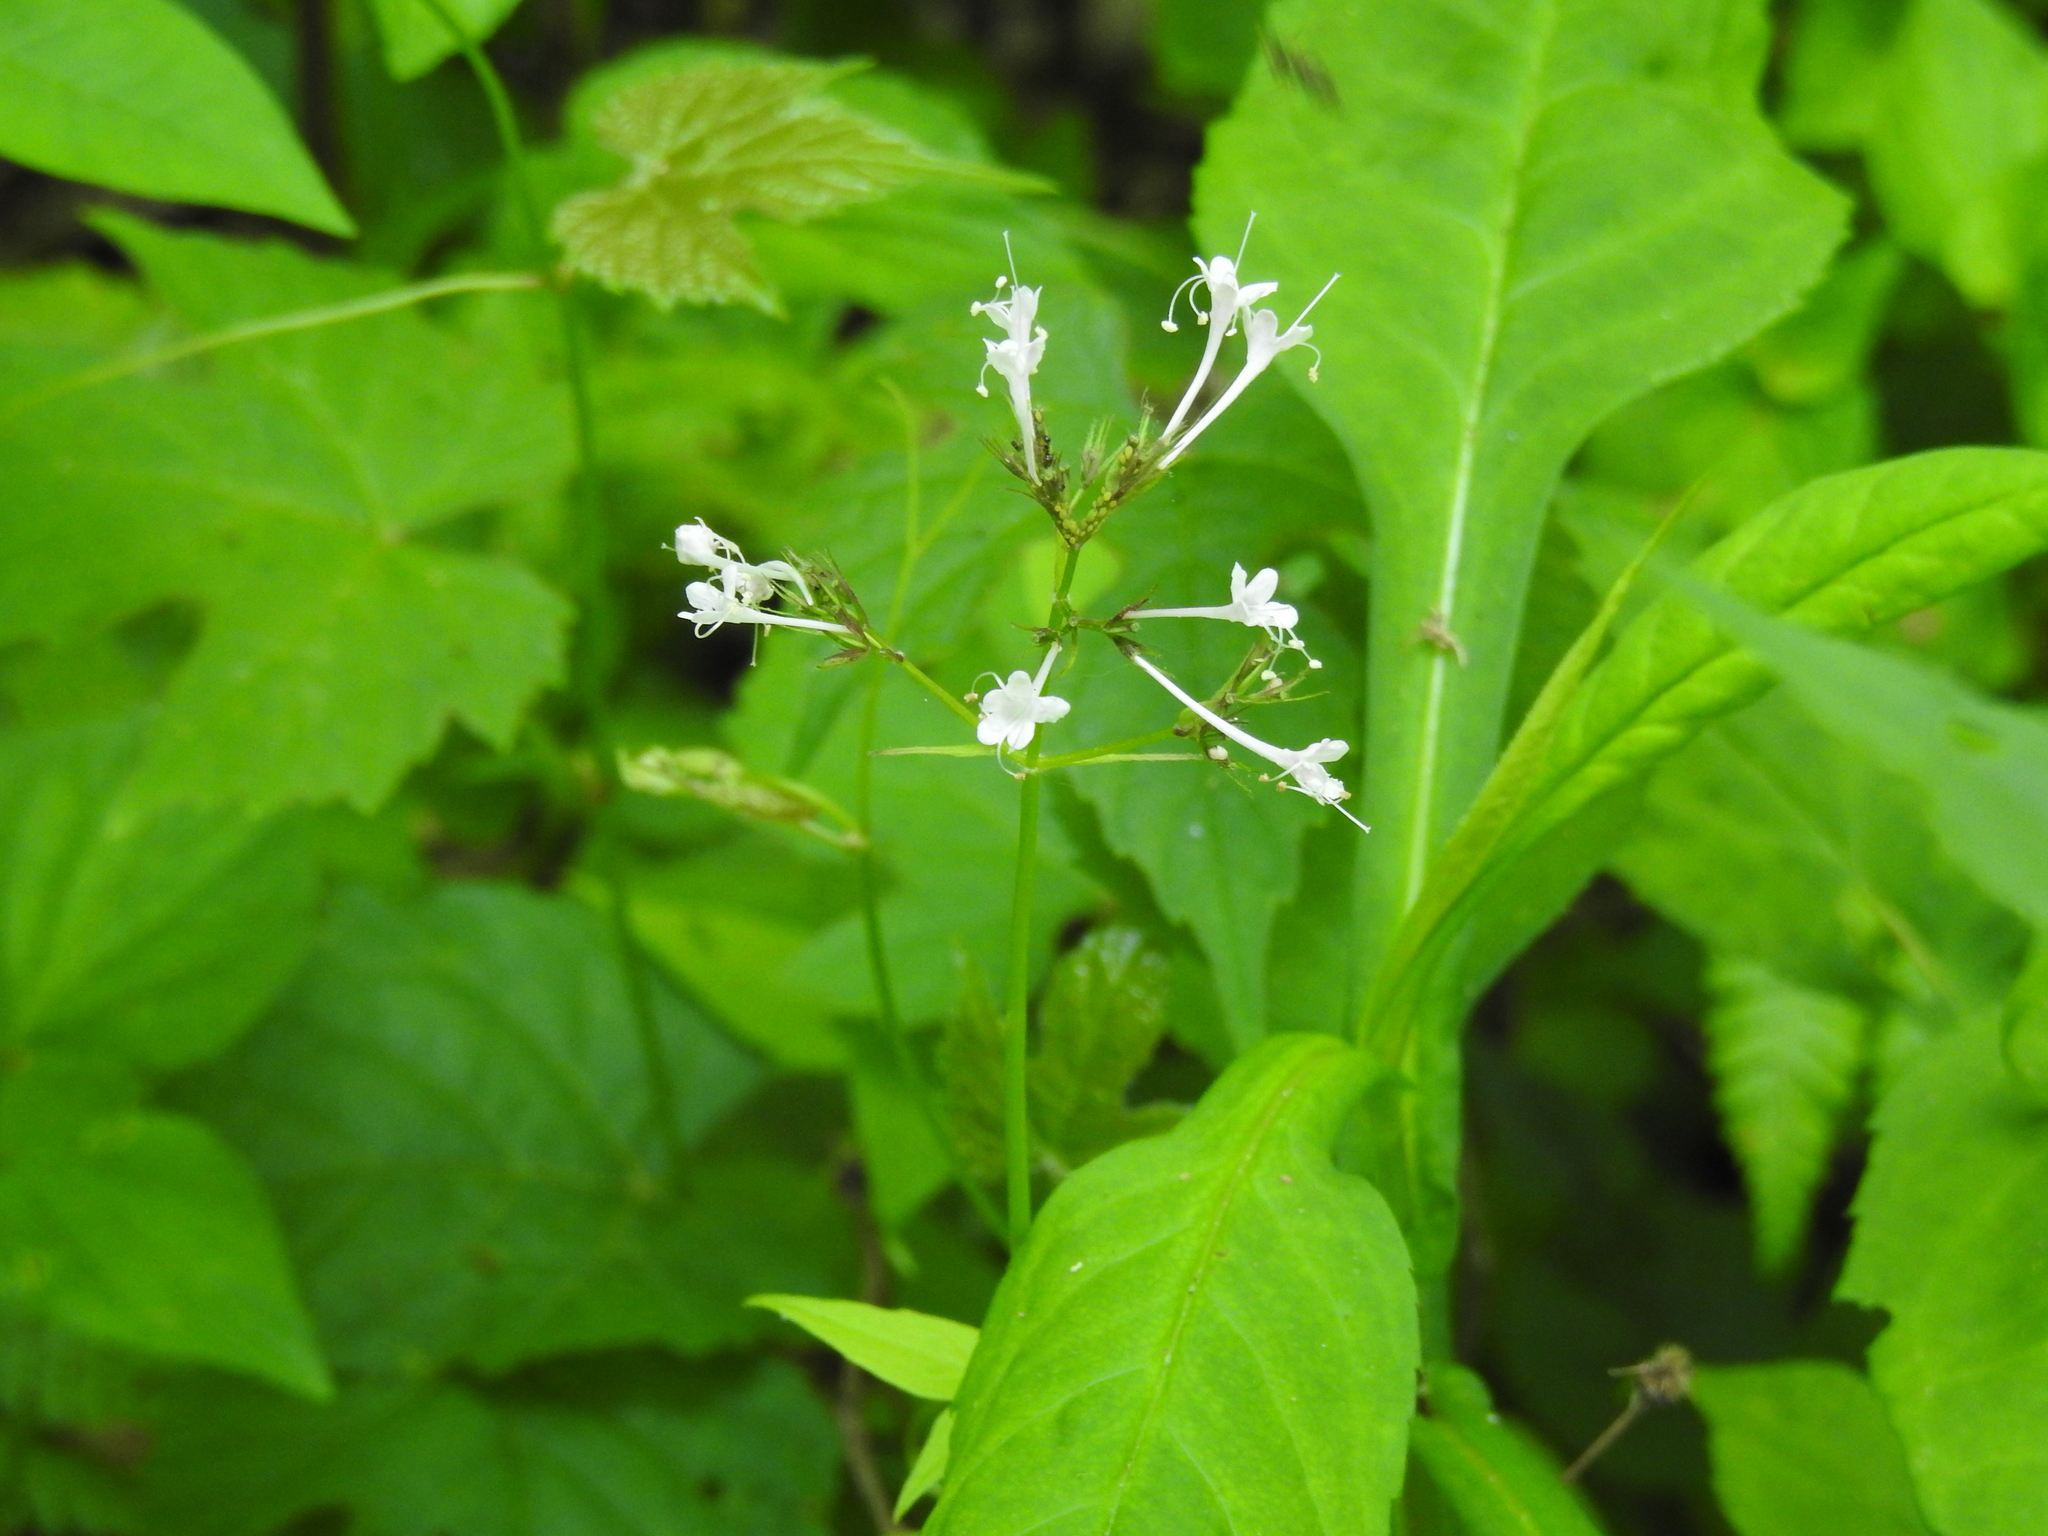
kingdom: Plantae
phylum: Tracheophyta
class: Magnoliopsida
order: Dipsacales
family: Caprifoliaceae
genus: Valeriana
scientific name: Valeriana pauciflora
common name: Long-tube valeriana
